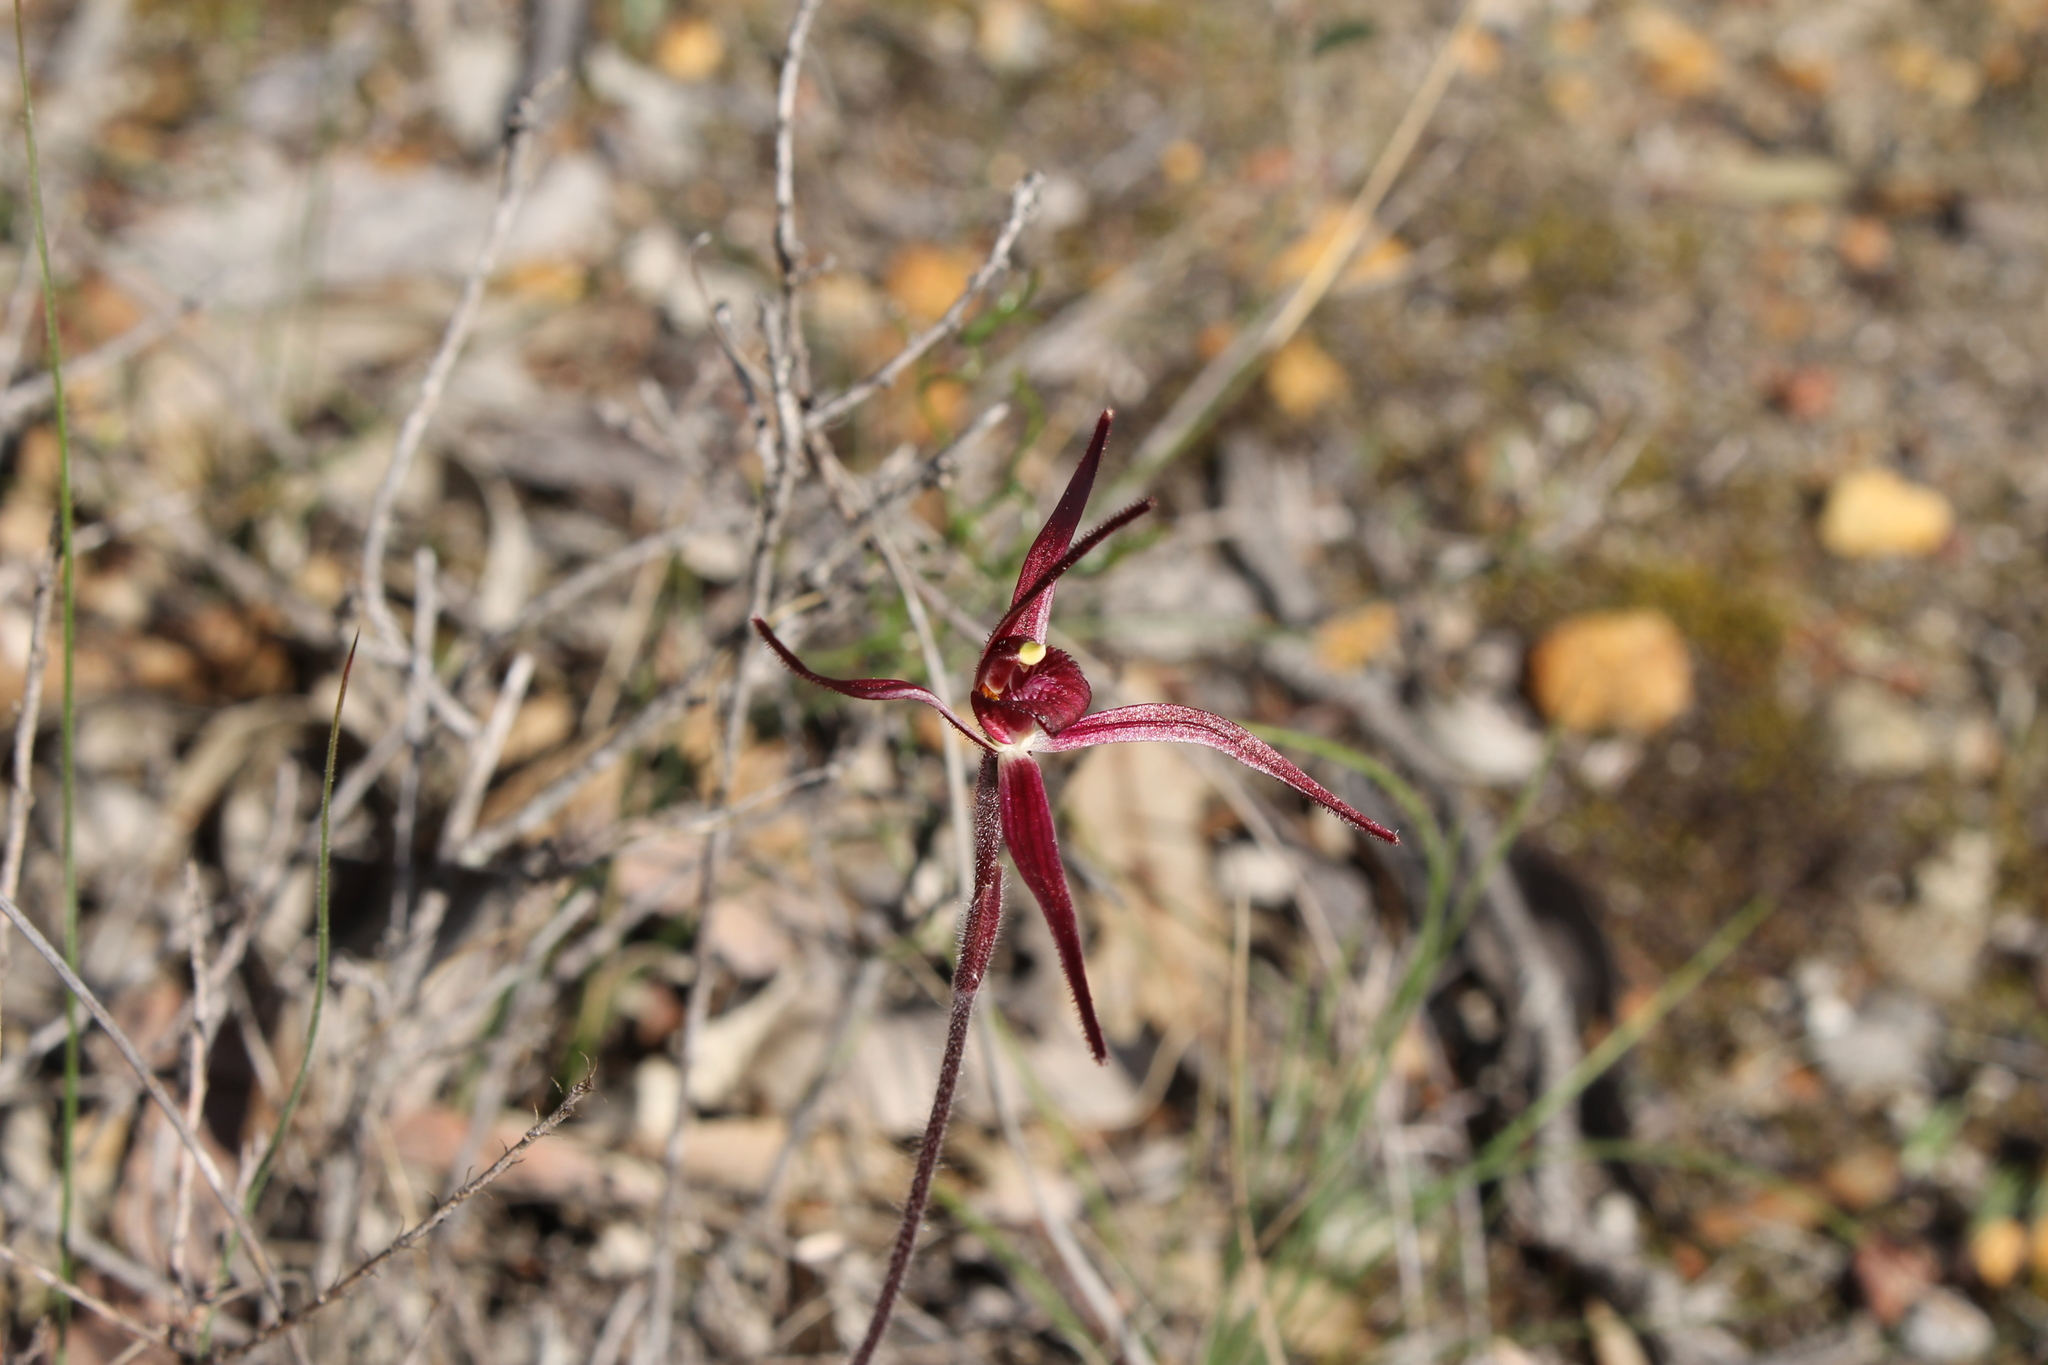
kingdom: Plantae
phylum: Tracheophyta
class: Liliopsida
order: Asparagales
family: Orchidaceae
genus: Caladenia
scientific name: Caladenia footeana
